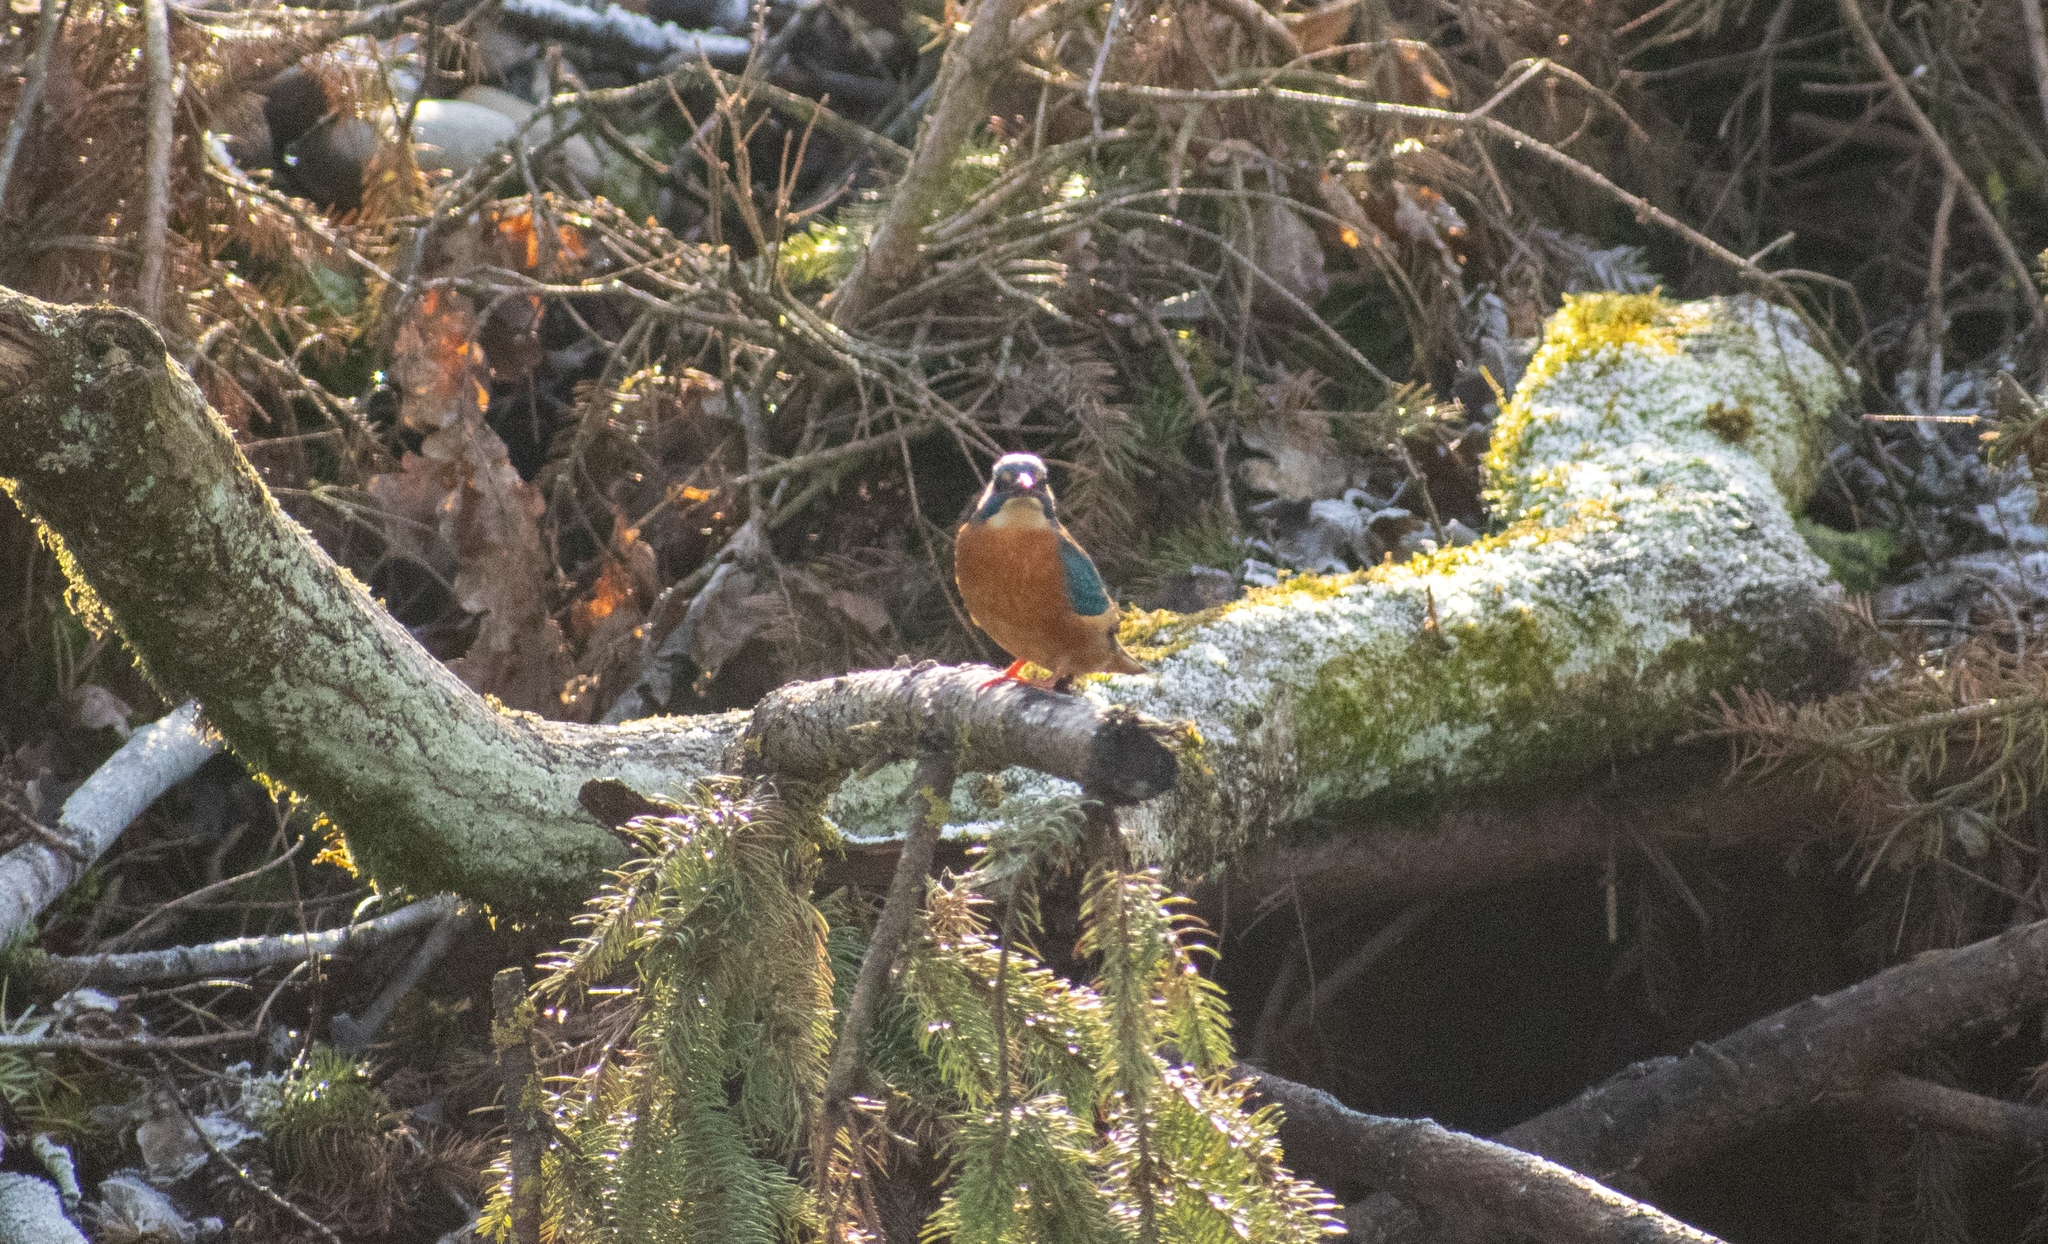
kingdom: Animalia
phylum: Chordata
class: Aves
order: Coraciiformes
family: Alcedinidae
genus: Alcedo
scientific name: Alcedo atthis
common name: Common kingfisher
